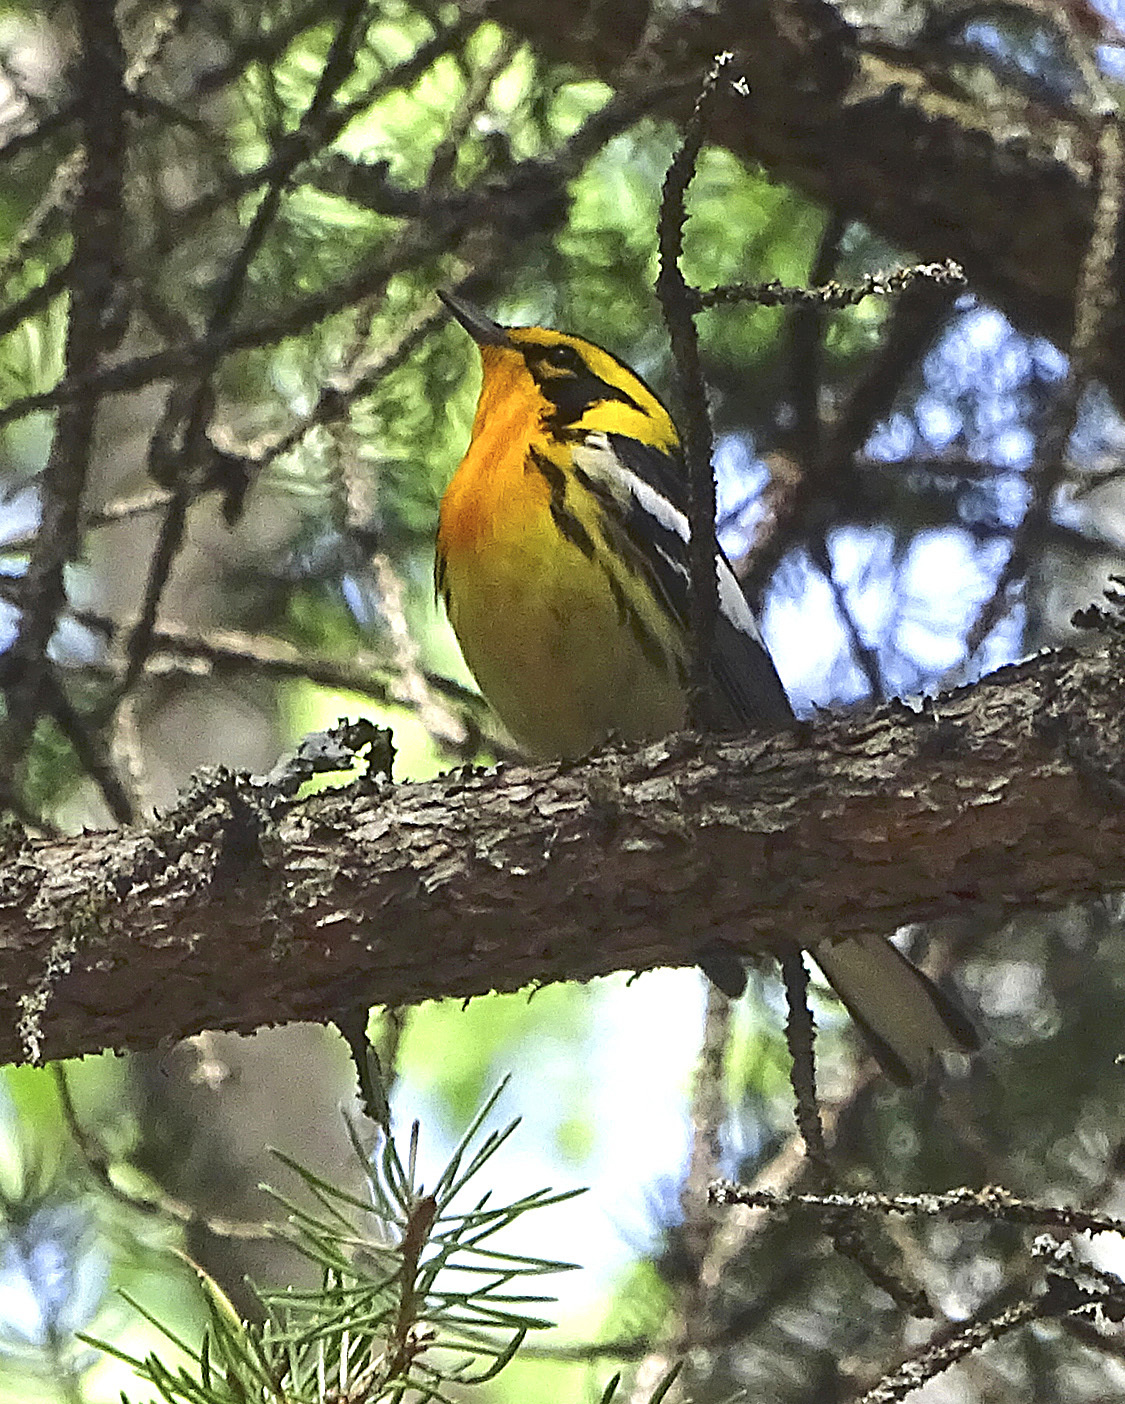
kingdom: Animalia
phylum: Chordata
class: Aves
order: Passeriformes
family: Parulidae
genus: Setophaga
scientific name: Setophaga fusca
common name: Blackburnian warbler
